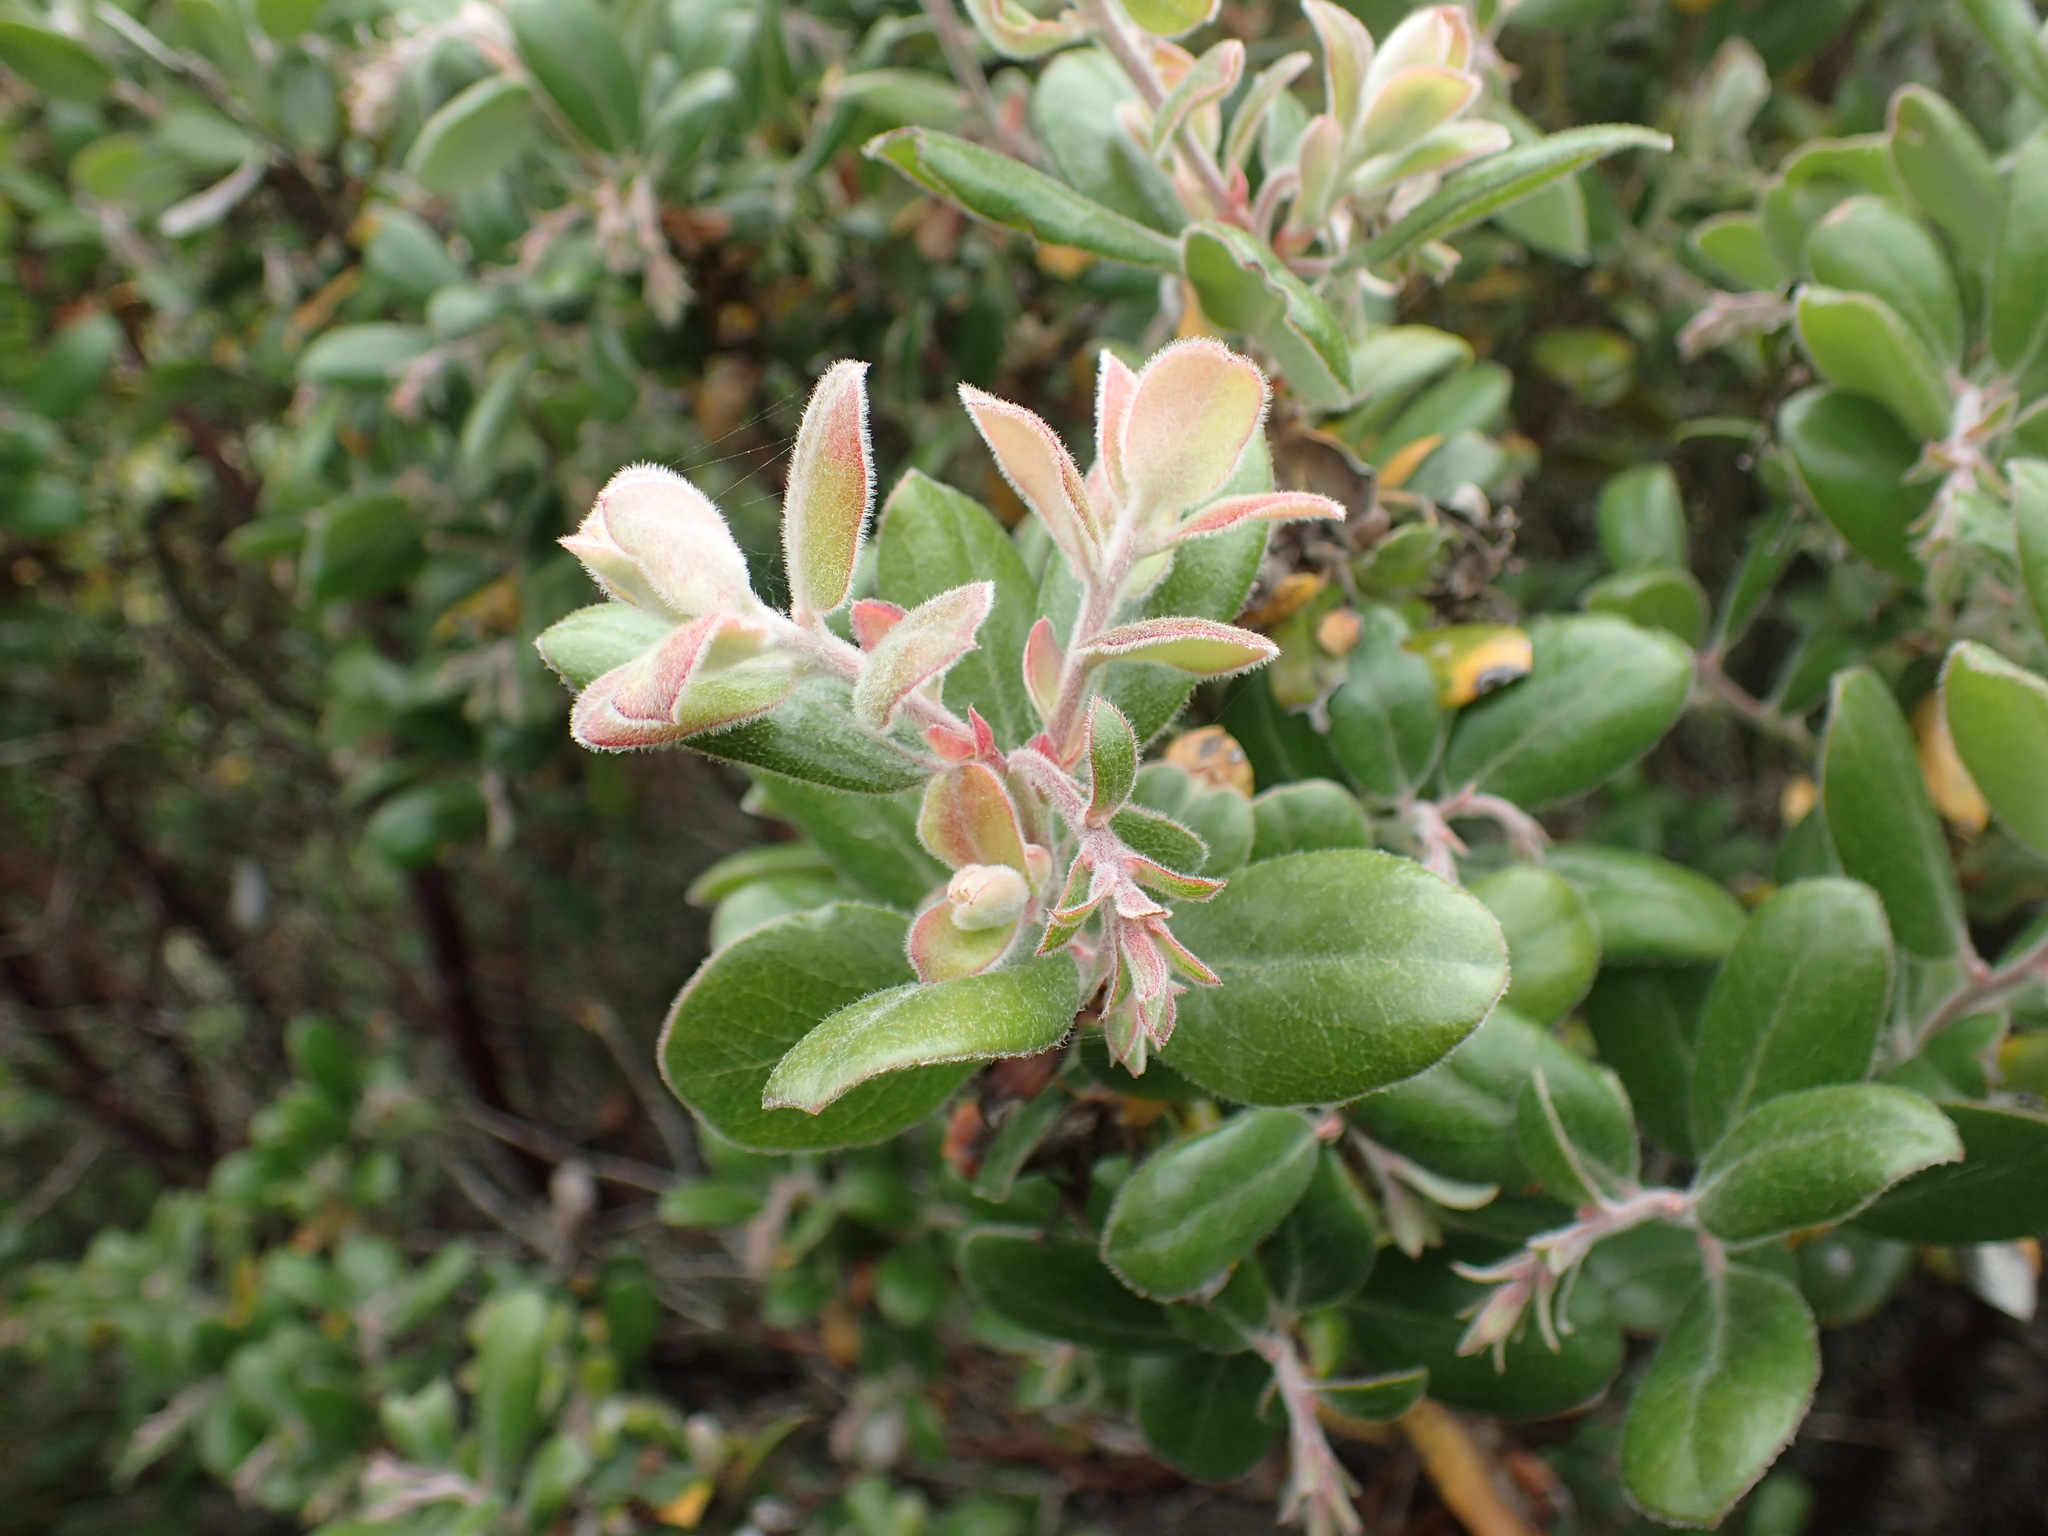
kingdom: Plantae
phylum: Tracheophyta
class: Magnoliopsida
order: Ericales
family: Ericaceae
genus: Arctostaphylos
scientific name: Arctostaphylos tomentosa
